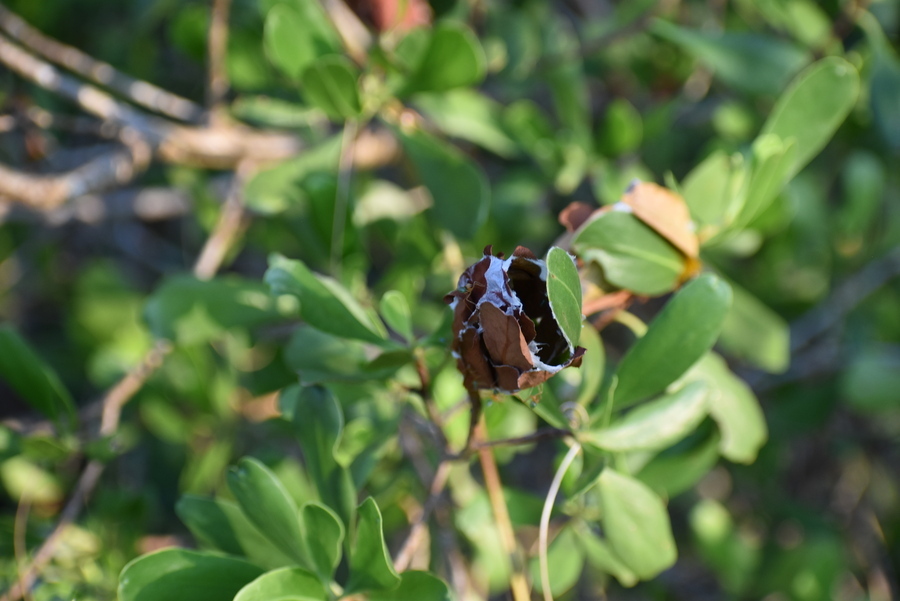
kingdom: Animalia
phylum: Arthropoda
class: Insecta
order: Hymenoptera
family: Formicidae
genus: Oecophylla
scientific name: Oecophylla smaragdina
